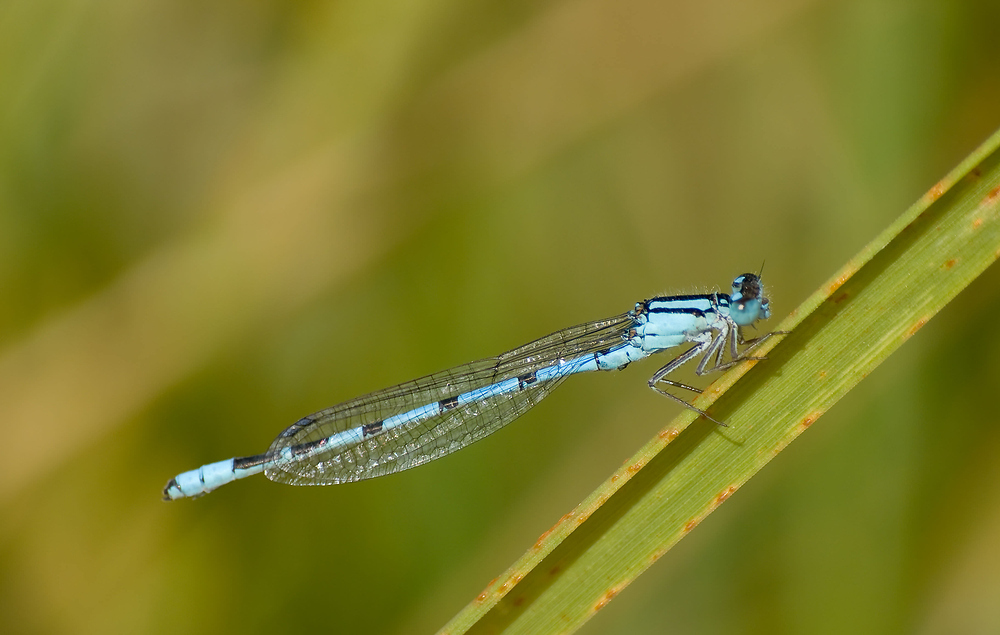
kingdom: Animalia
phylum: Arthropoda
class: Insecta
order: Odonata
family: Coenagrionidae
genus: Enallagma
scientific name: Enallagma cyathigerum
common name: Common blue damselfly
